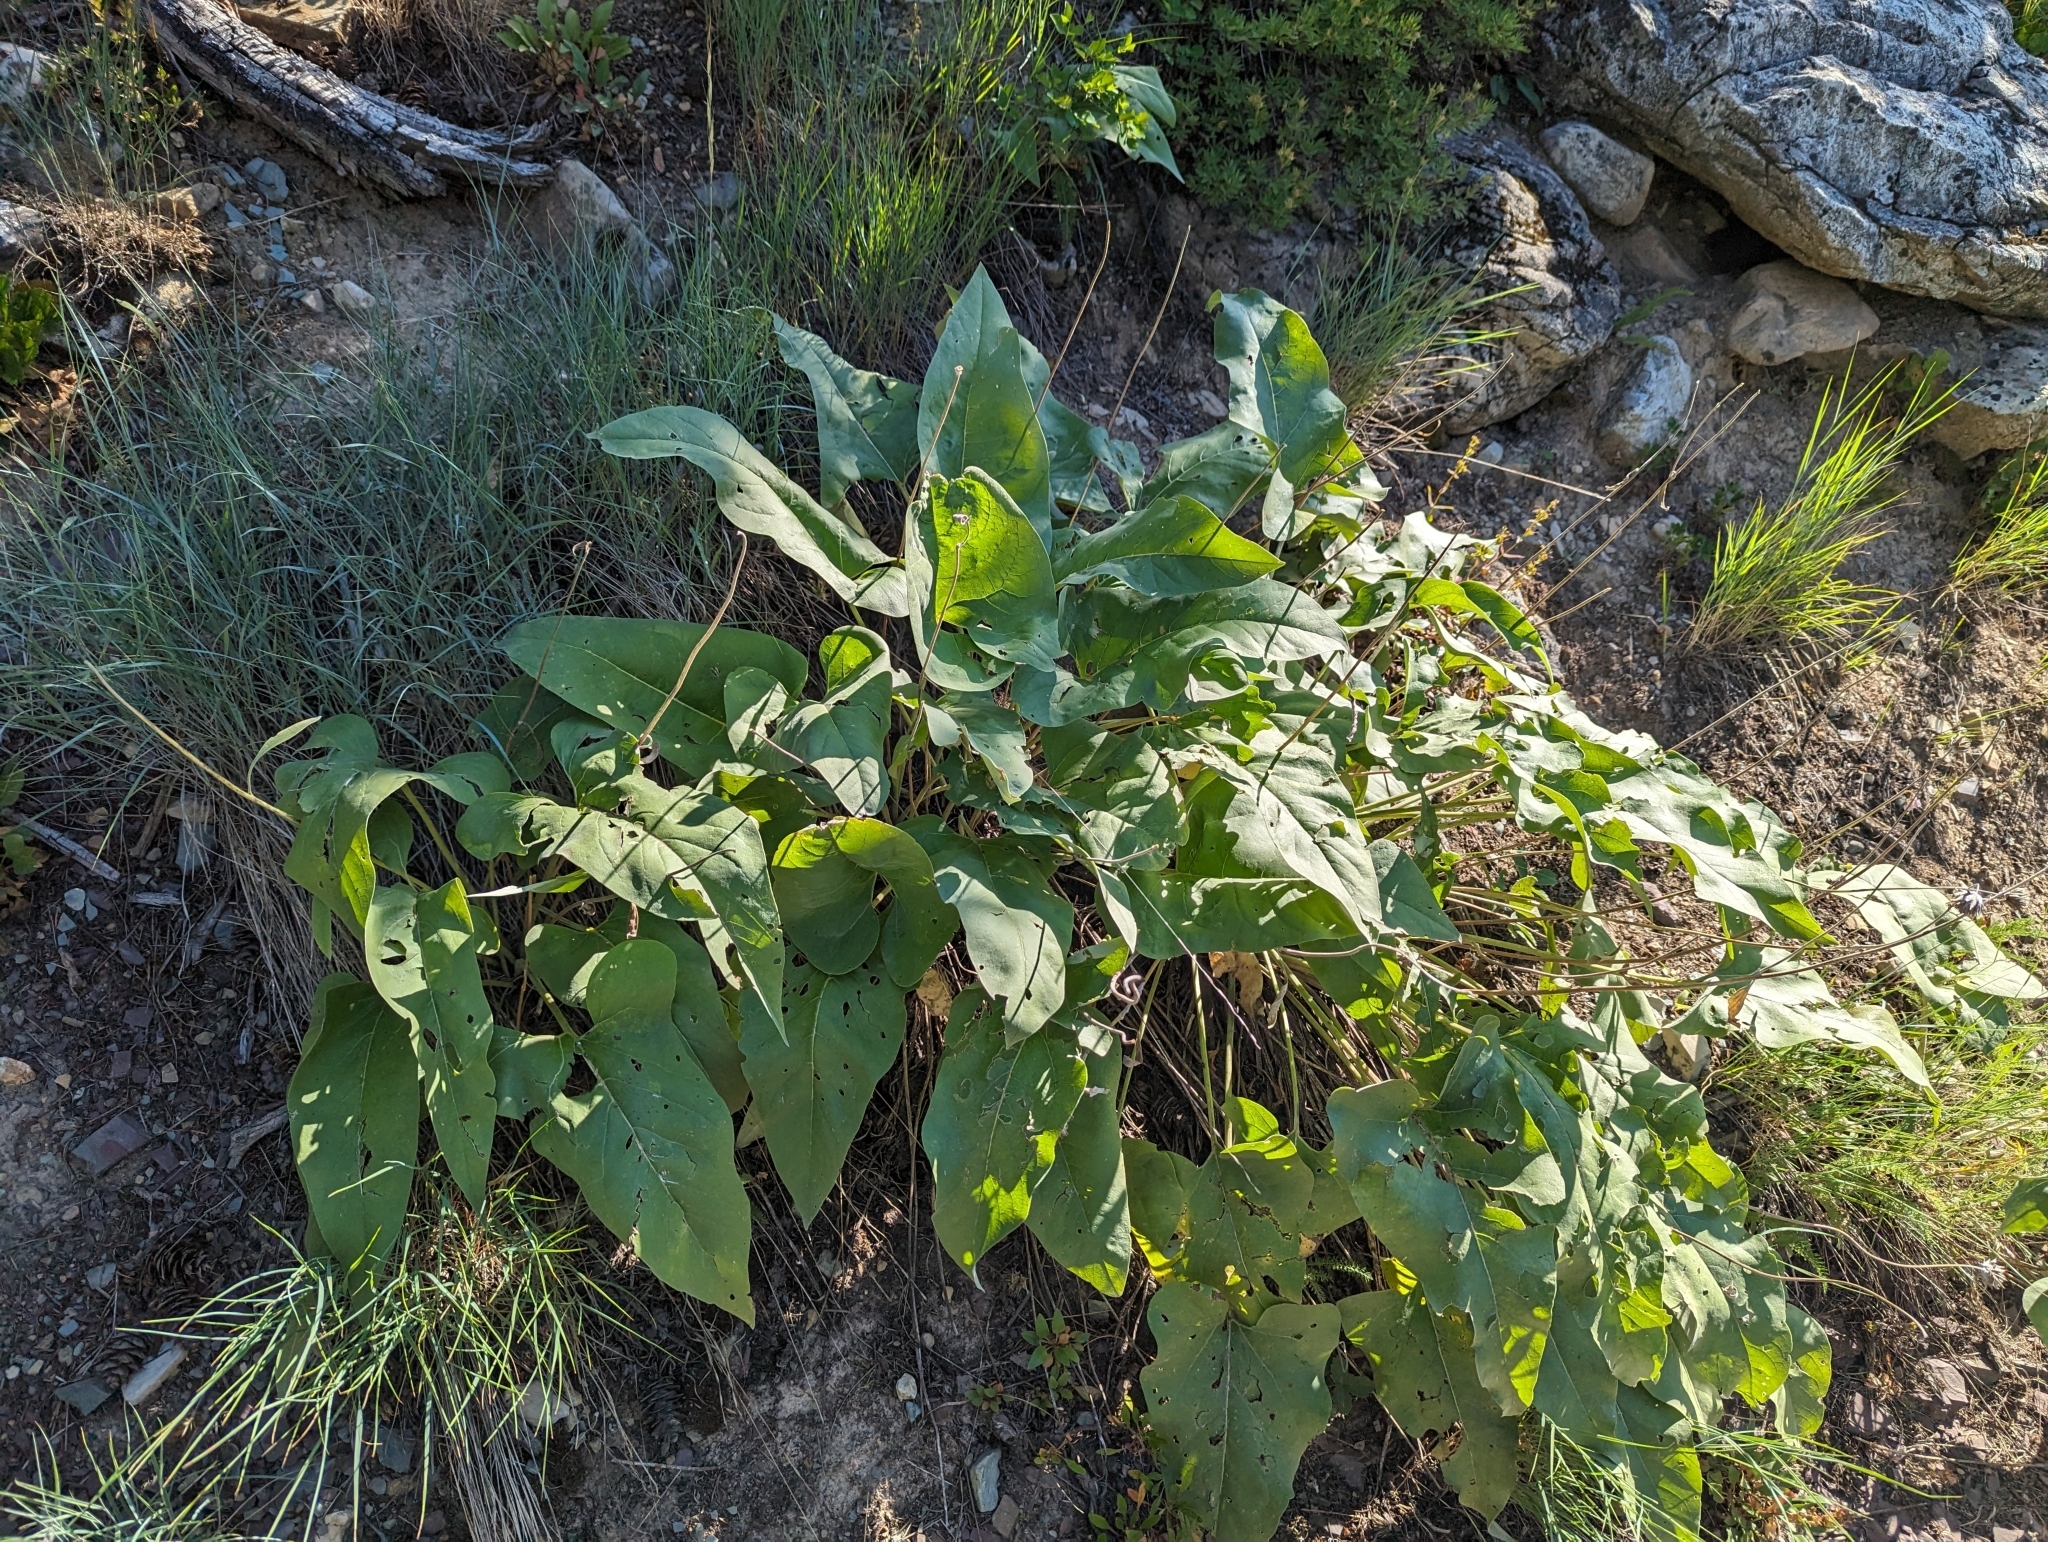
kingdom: Plantae
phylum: Tracheophyta
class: Magnoliopsida
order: Asterales
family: Asteraceae
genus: Wyethia
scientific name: Wyethia sagittata
